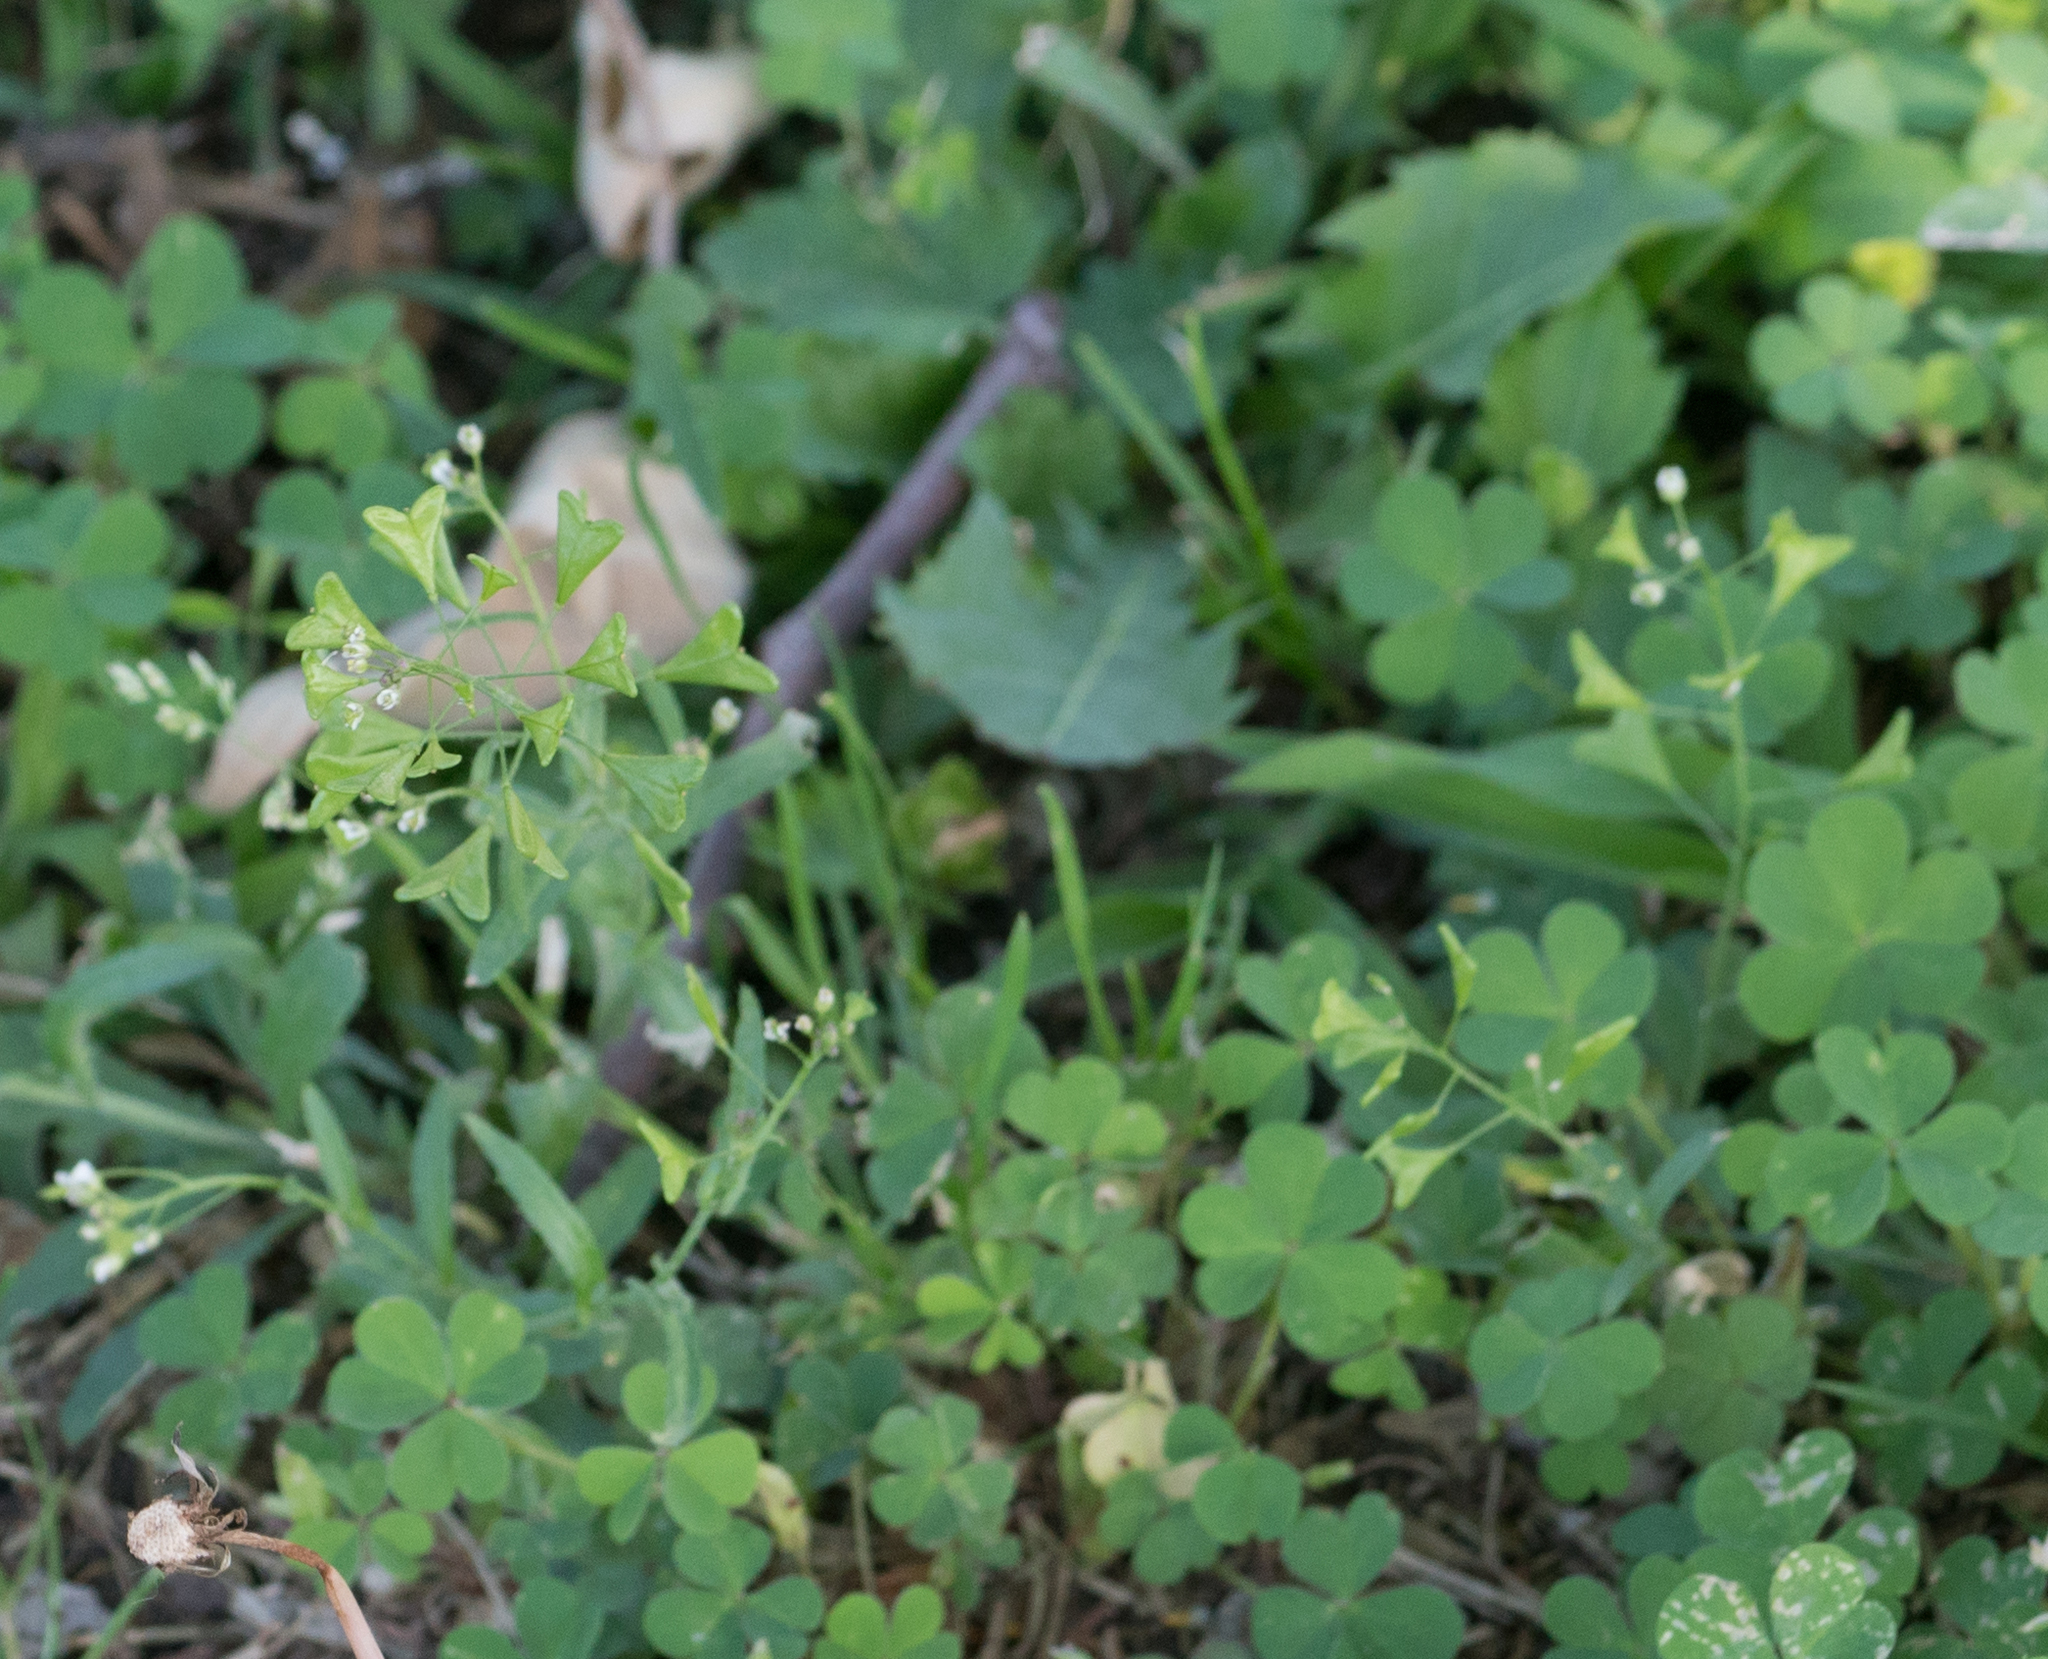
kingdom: Plantae
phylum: Tracheophyta
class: Magnoliopsida
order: Brassicales
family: Brassicaceae
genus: Capsella
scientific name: Capsella bursa-pastoris
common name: Shepherd's purse
